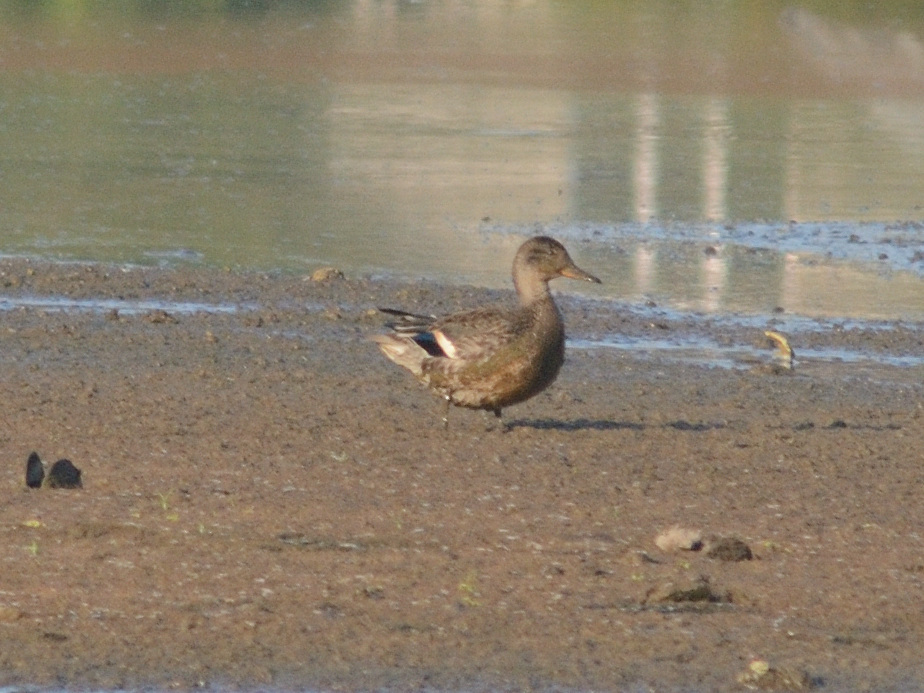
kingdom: Animalia
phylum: Chordata
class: Aves
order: Anseriformes
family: Anatidae
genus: Anas
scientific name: Anas platyrhynchos
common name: Mallard
